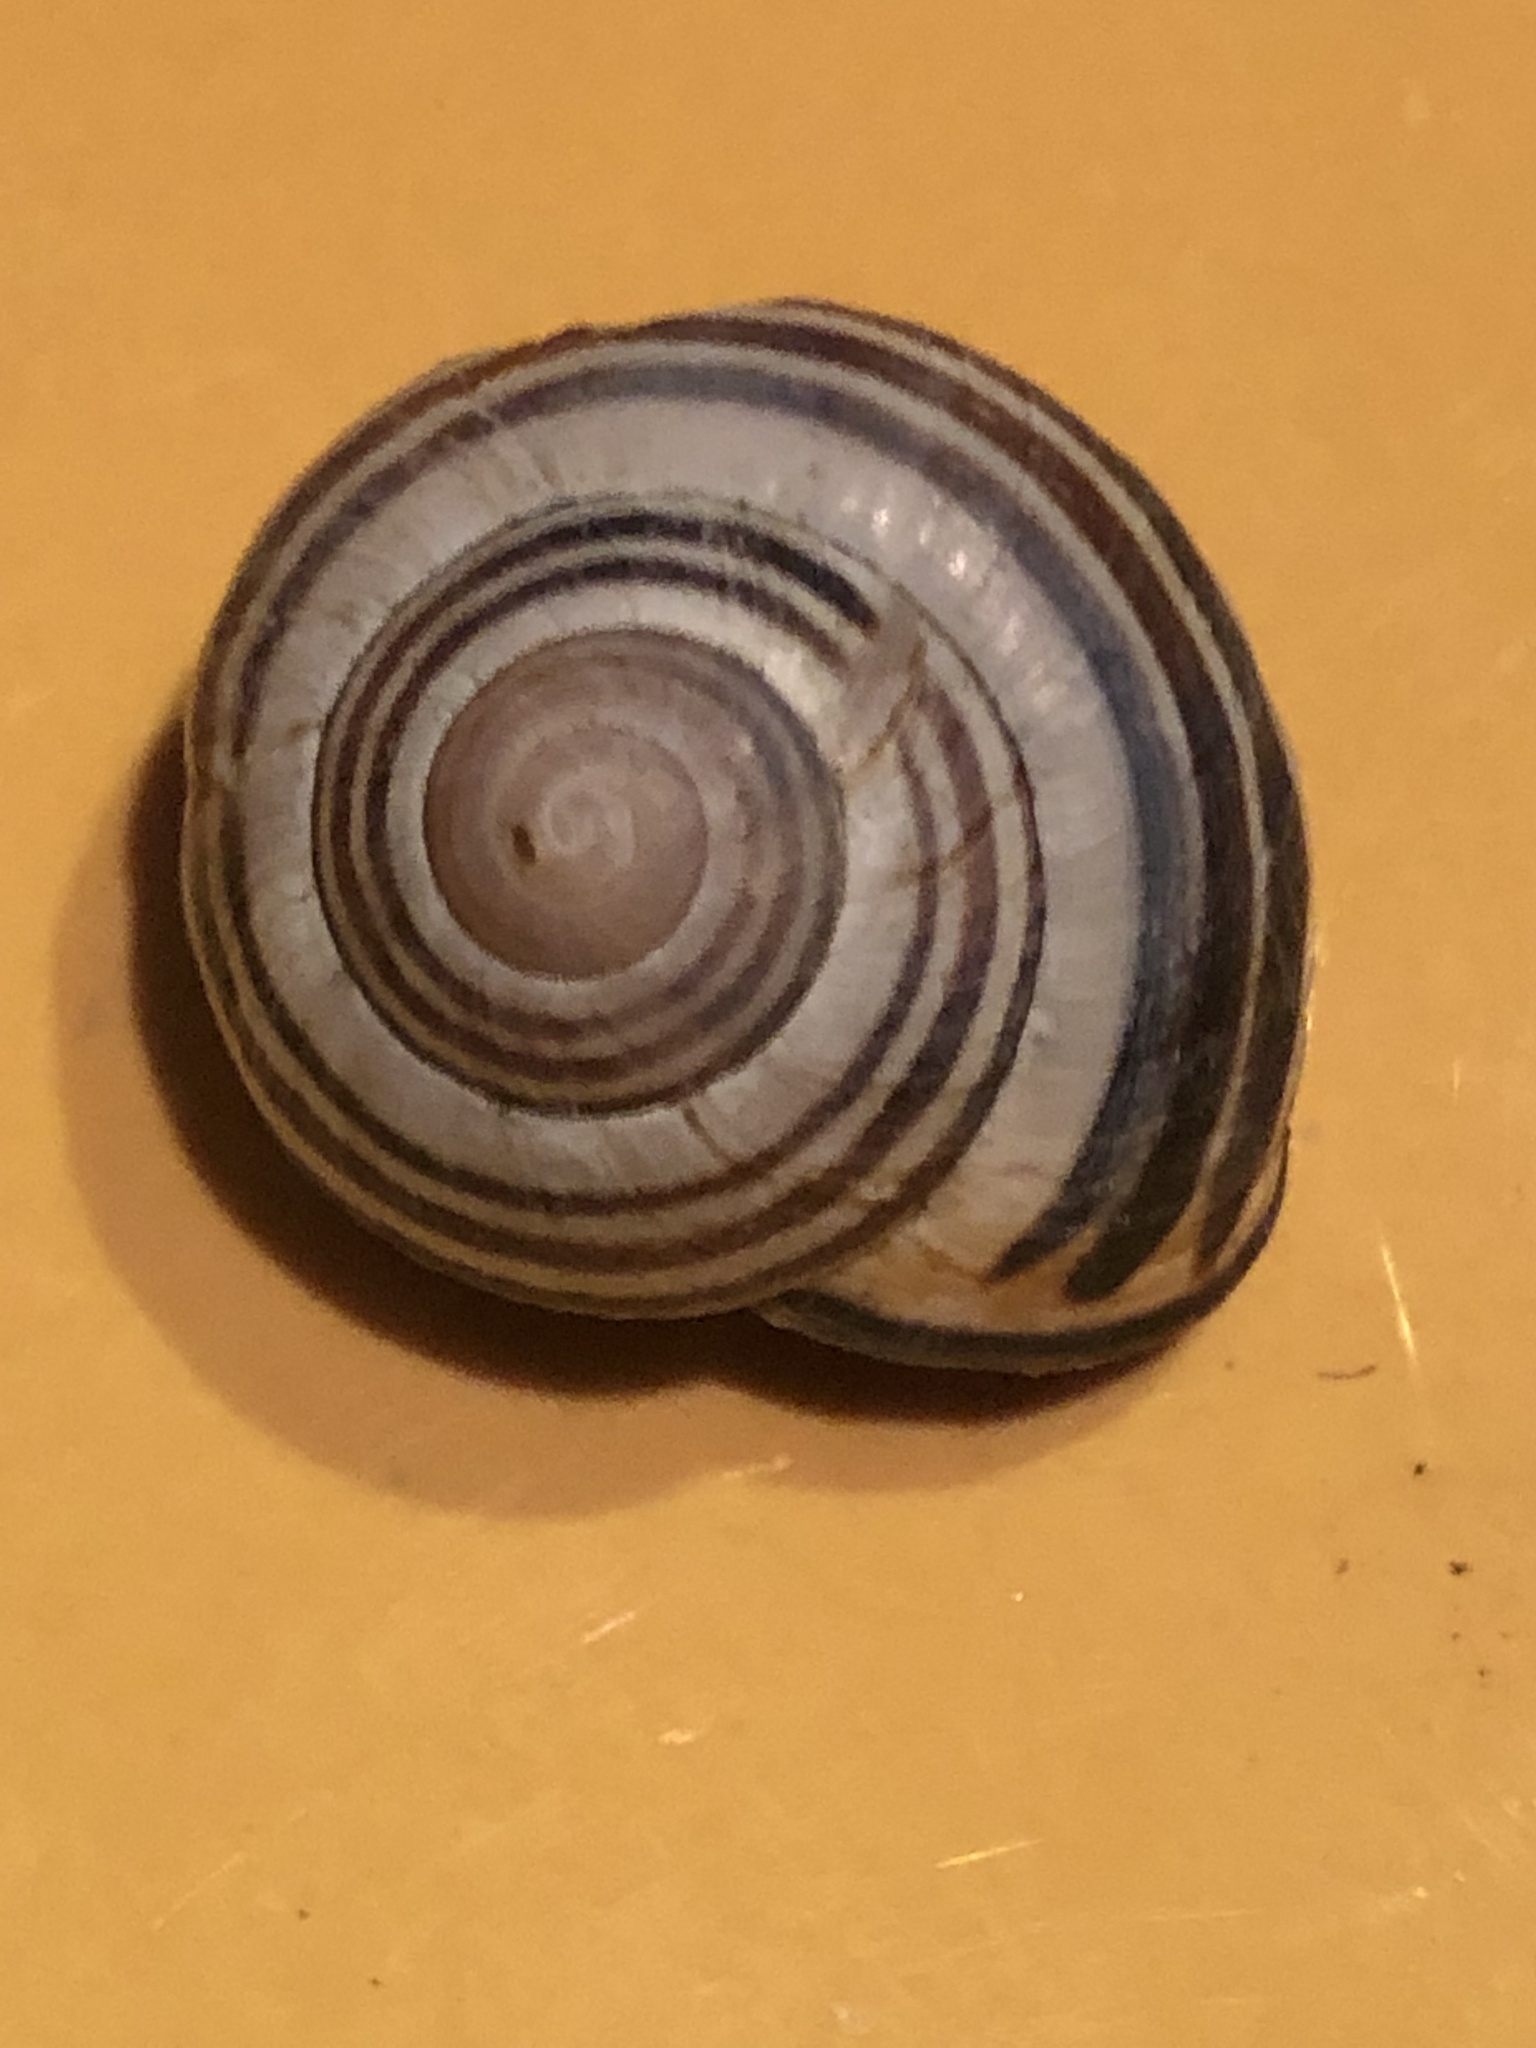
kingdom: Animalia
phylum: Mollusca
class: Gastropoda
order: Stylommatophora
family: Helicidae
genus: Cepaea
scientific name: Cepaea nemoralis
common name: Grovesnail
